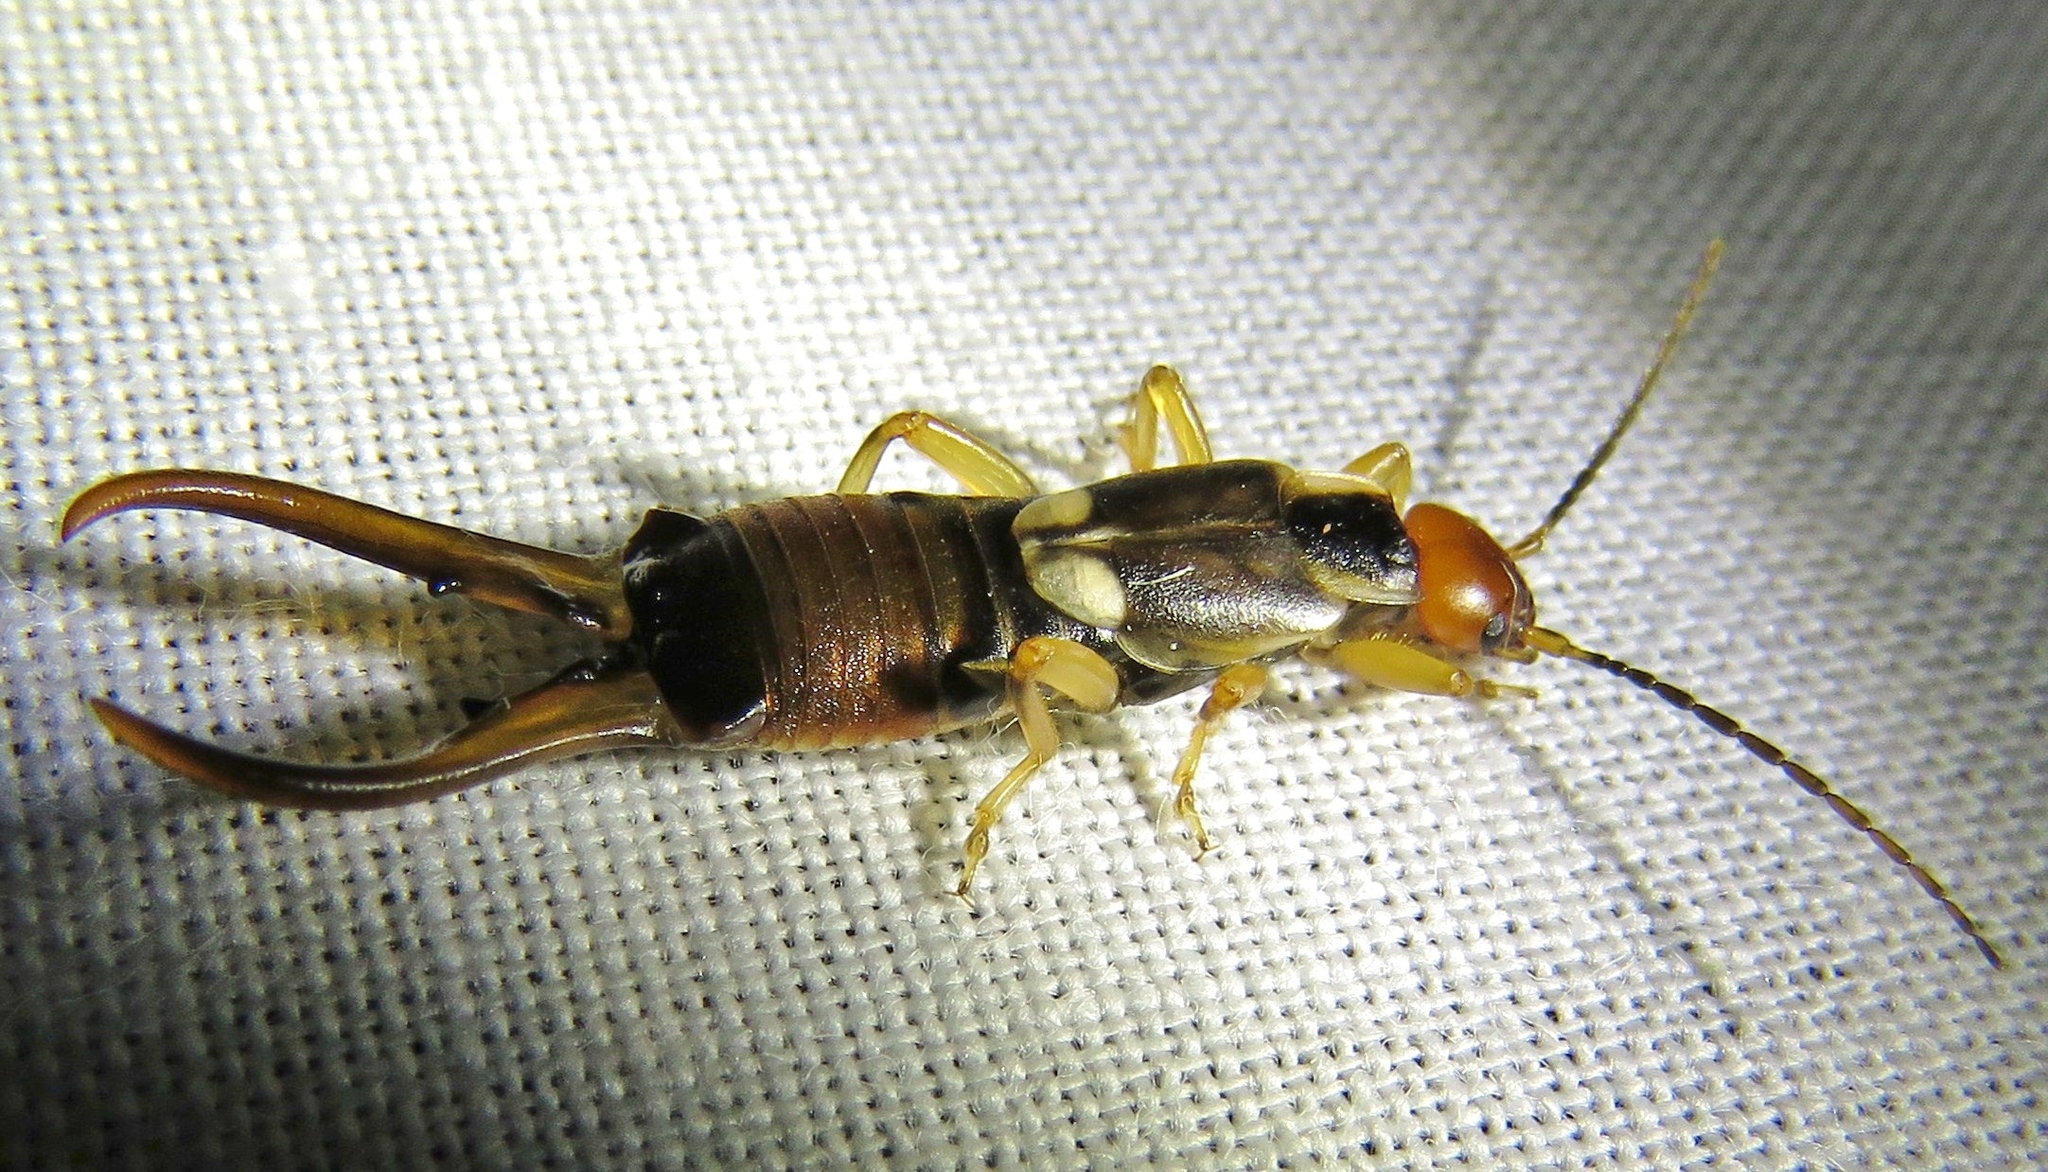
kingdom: Animalia
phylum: Arthropoda
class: Insecta
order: Dermaptera
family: Forficulidae
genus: Forficula
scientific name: Forficula
